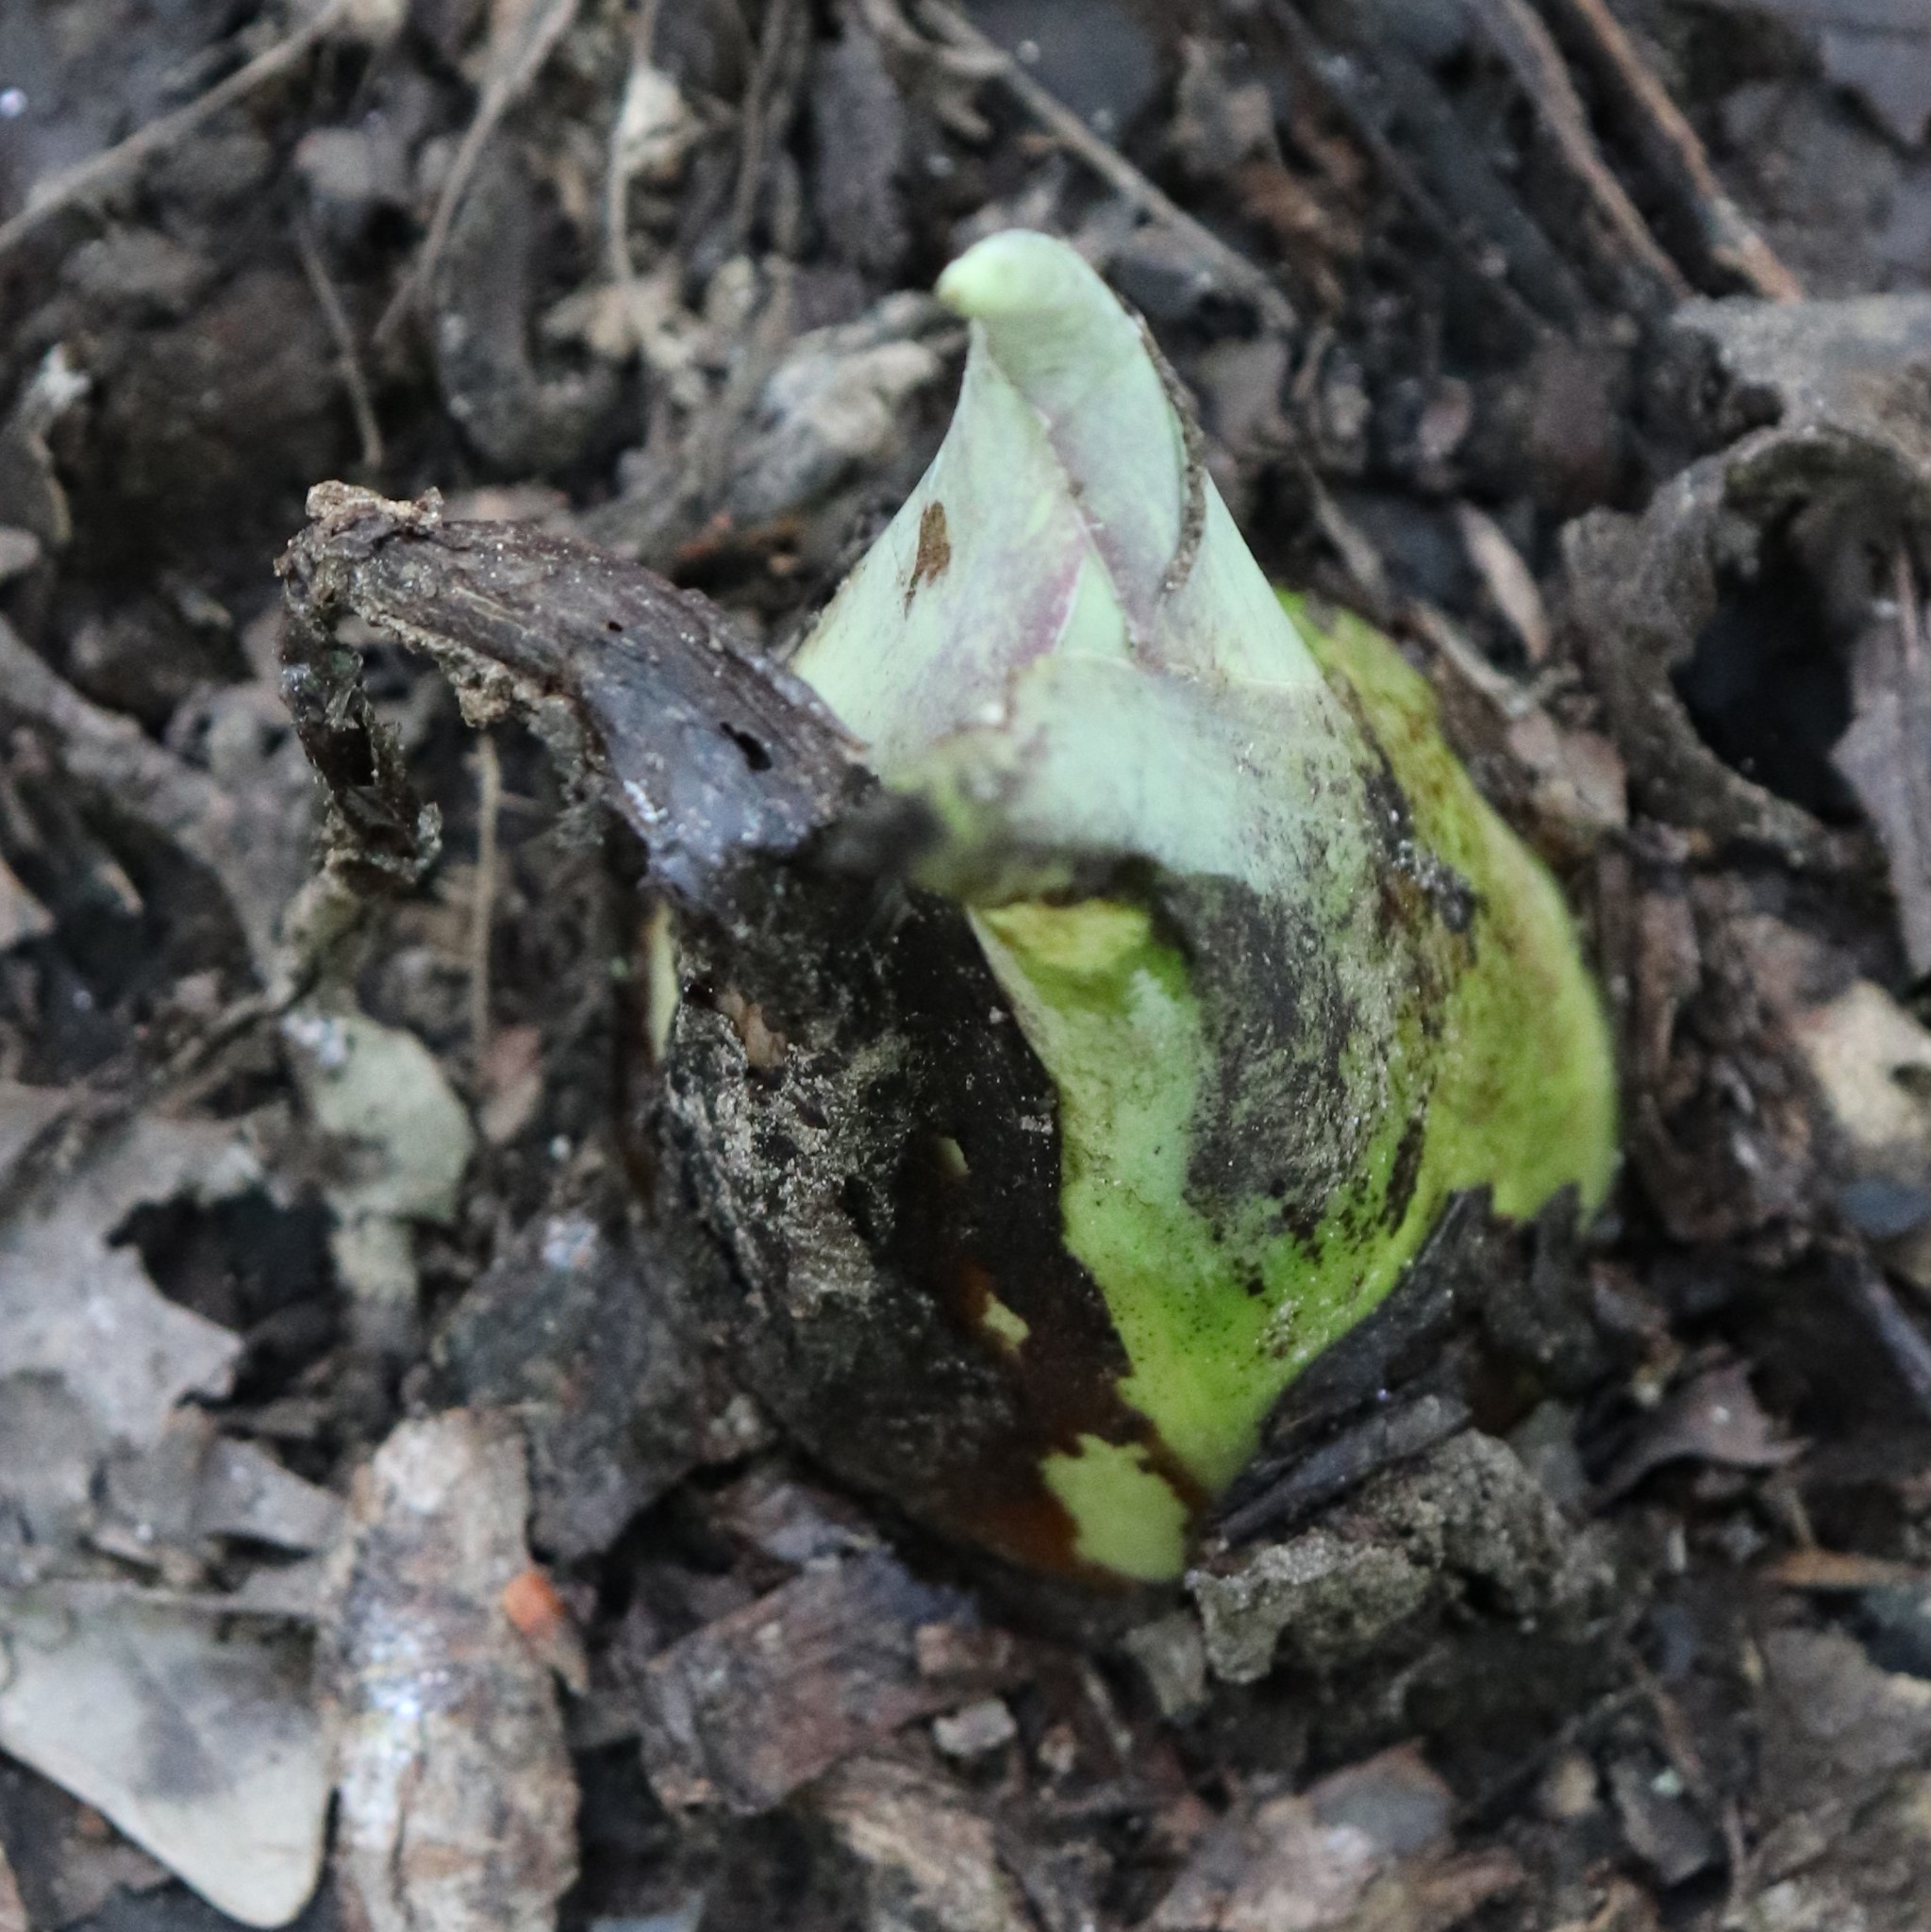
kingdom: Plantae
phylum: Tracheophyta
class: Liliopsida
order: Alismatales
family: Araceae
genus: Symplocarpus
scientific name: Symplocarpus foetidus
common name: Eastern skunk cabbage
